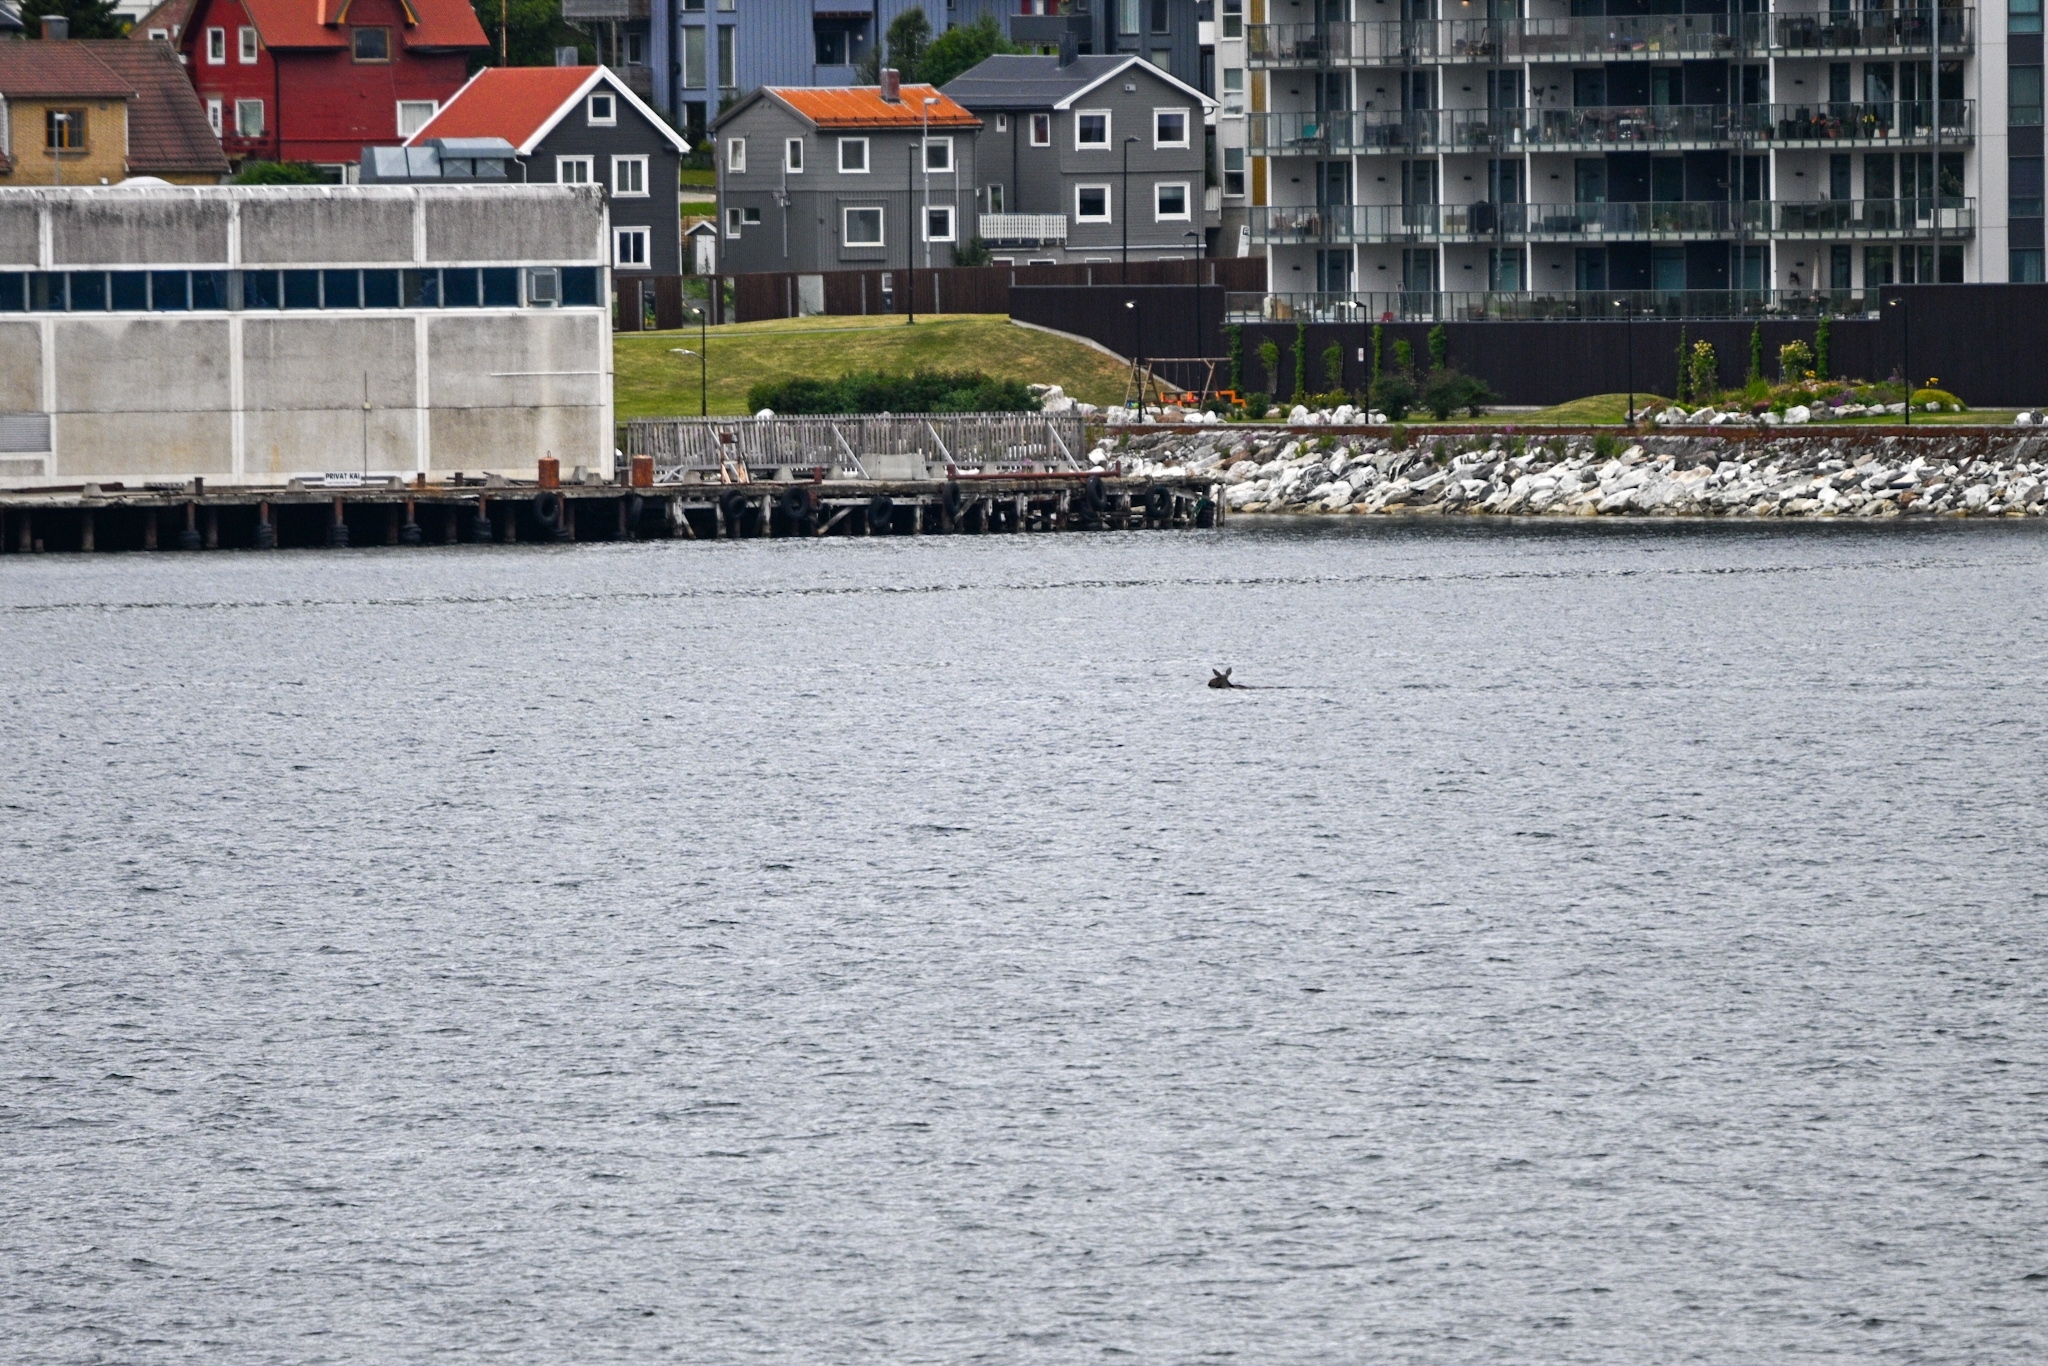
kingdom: Animalia
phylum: Chordata
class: Mammalia
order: Artiodactyla
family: Cervidae
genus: Alces
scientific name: Alces alces
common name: Moose
